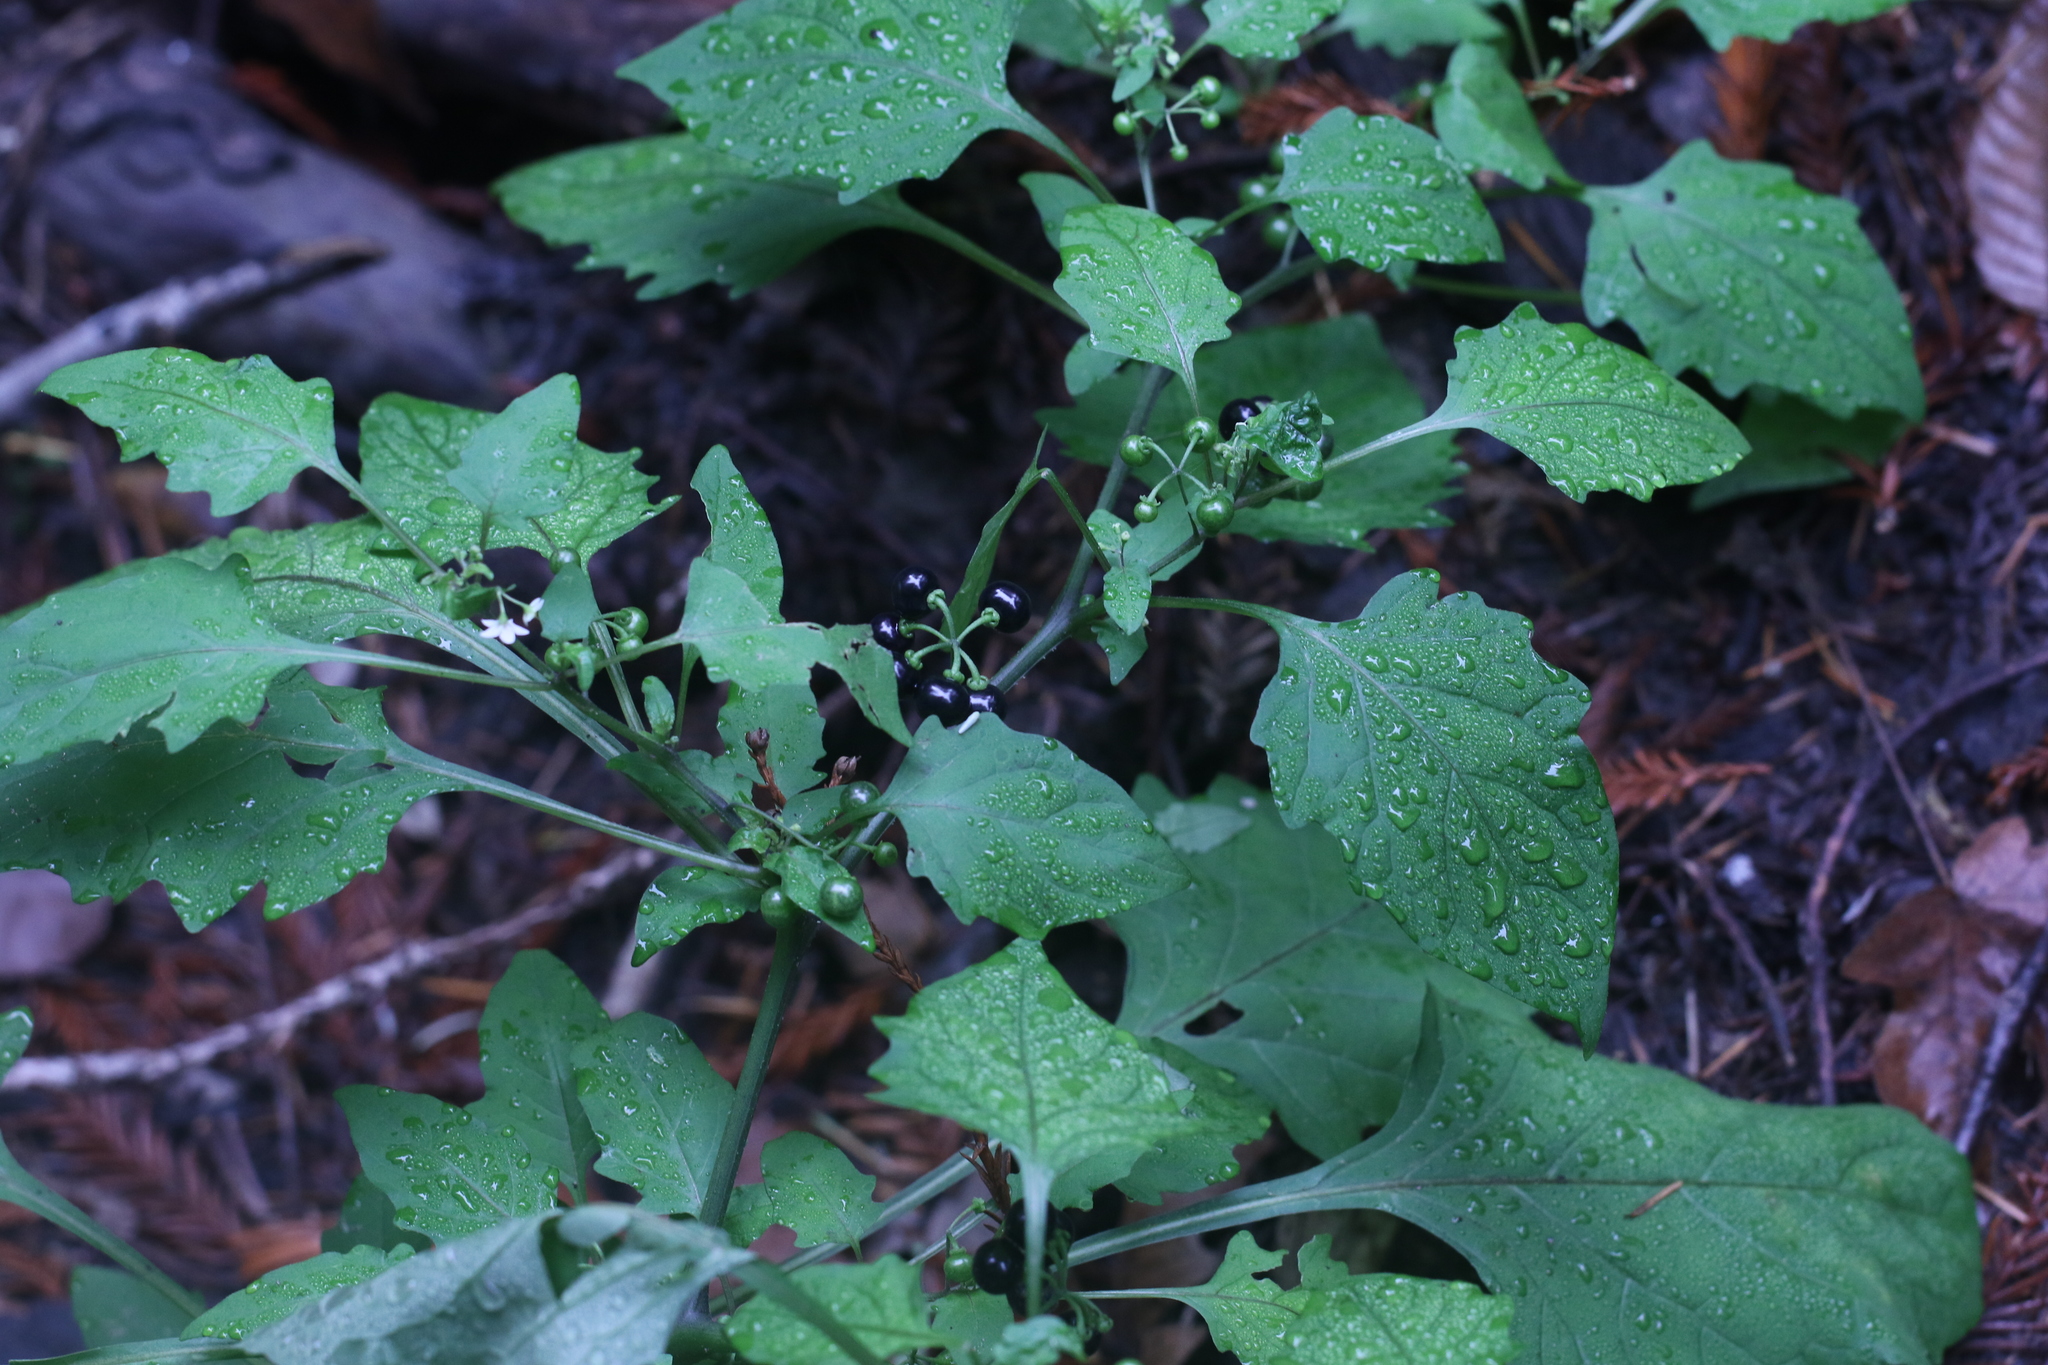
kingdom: Plantae
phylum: Tracheophyta
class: Magnoliopsida
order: Solanales
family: Solanaceae
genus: Solanum
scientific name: Solanum americanum
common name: American black nightshade
